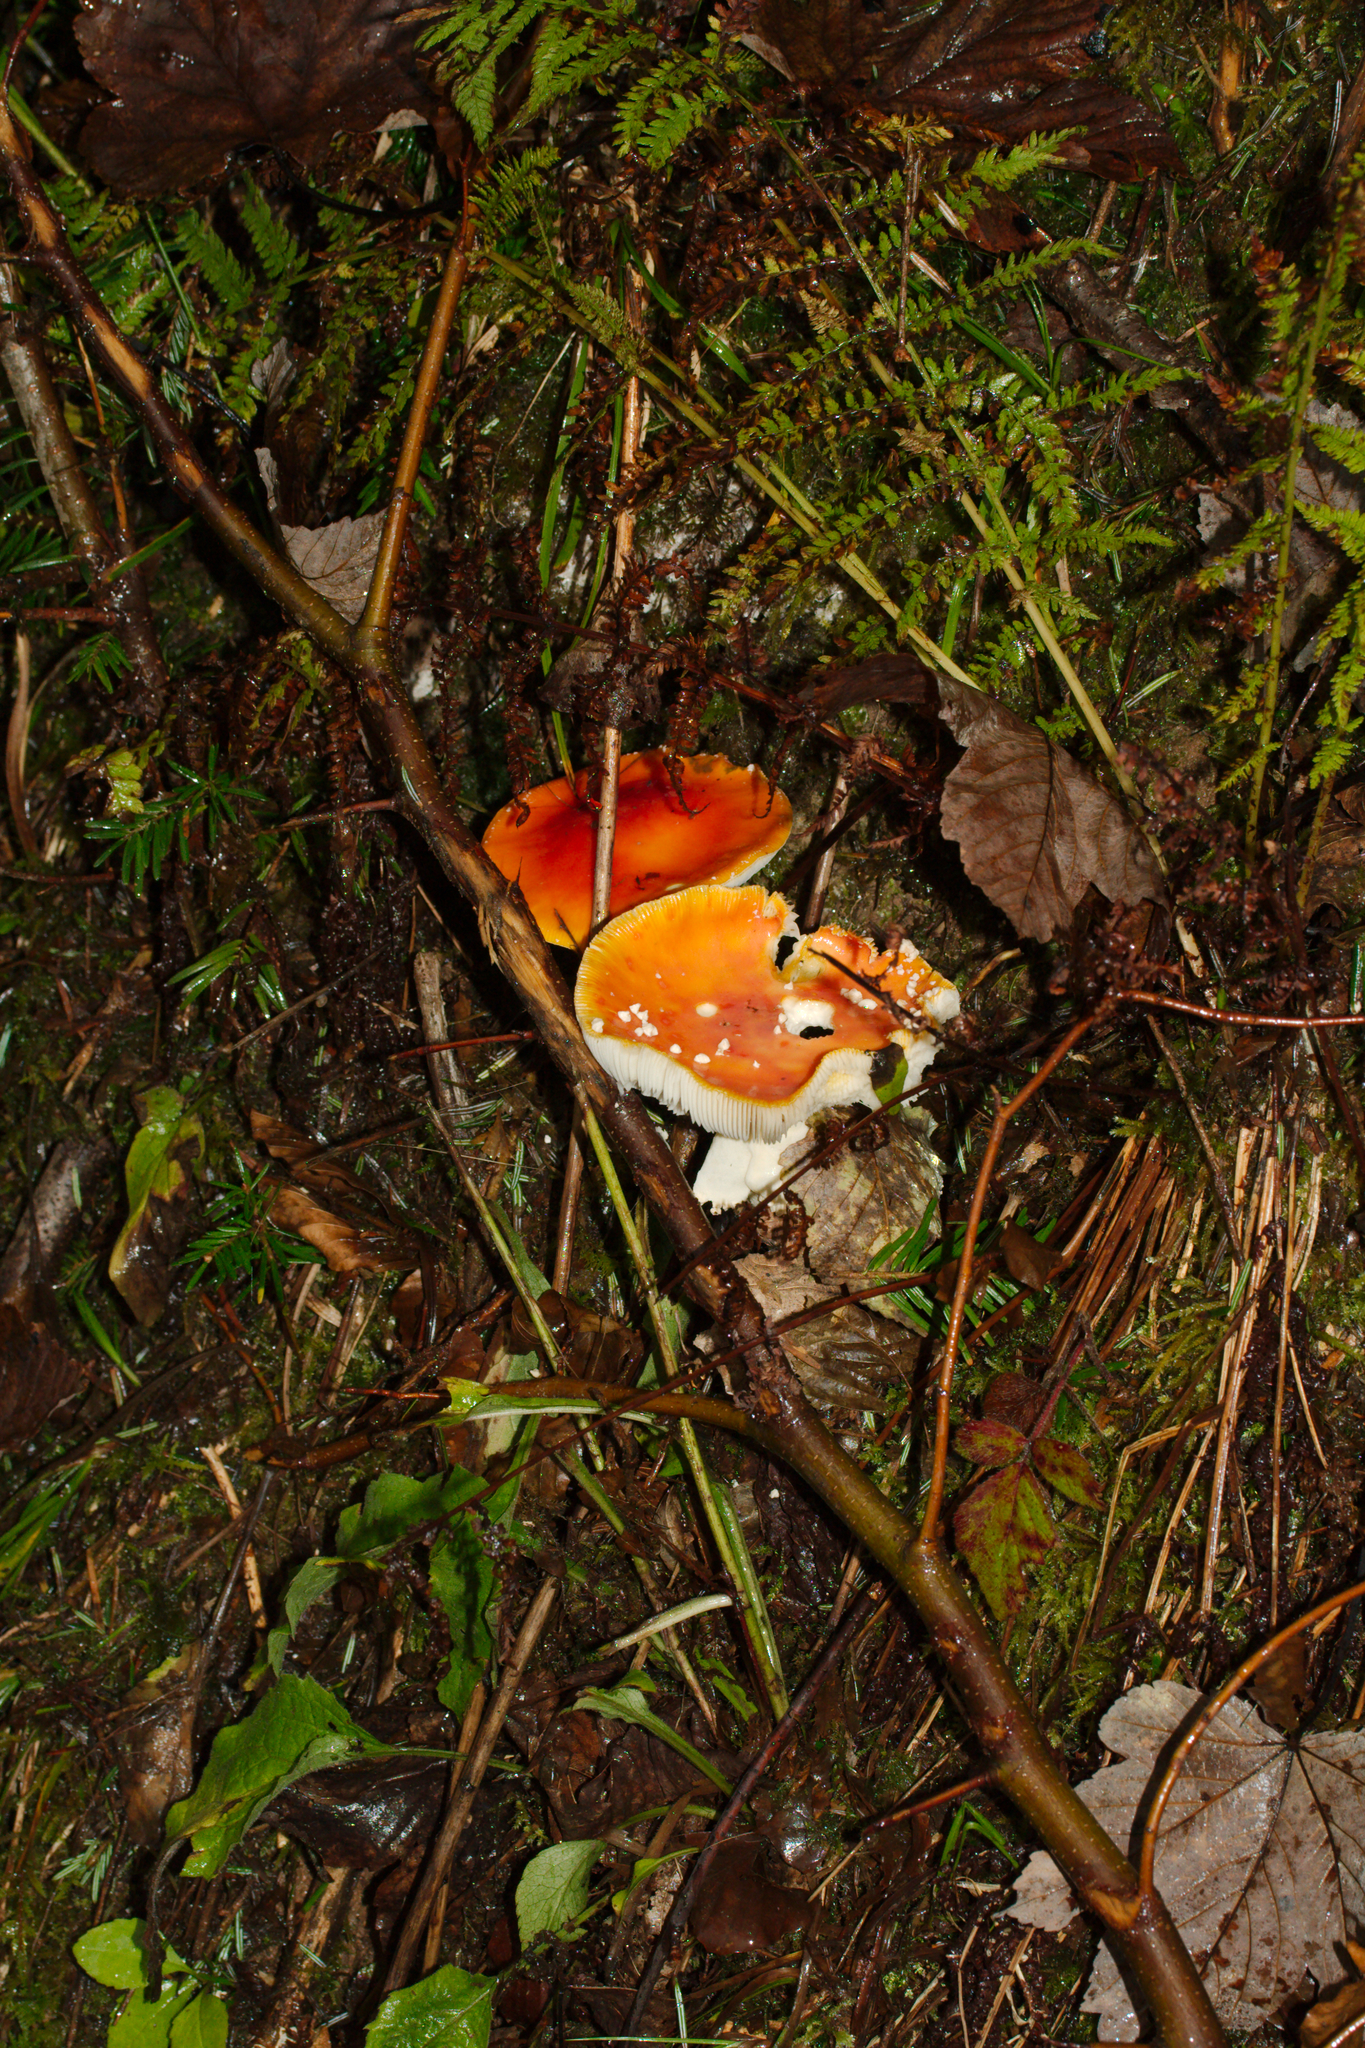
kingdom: Fungi
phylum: Basidiomycota
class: Agaricomycetes
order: Agaricales
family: Amanitaceae
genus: Amanita
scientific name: Amanita muscaria
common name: Fly agaric
